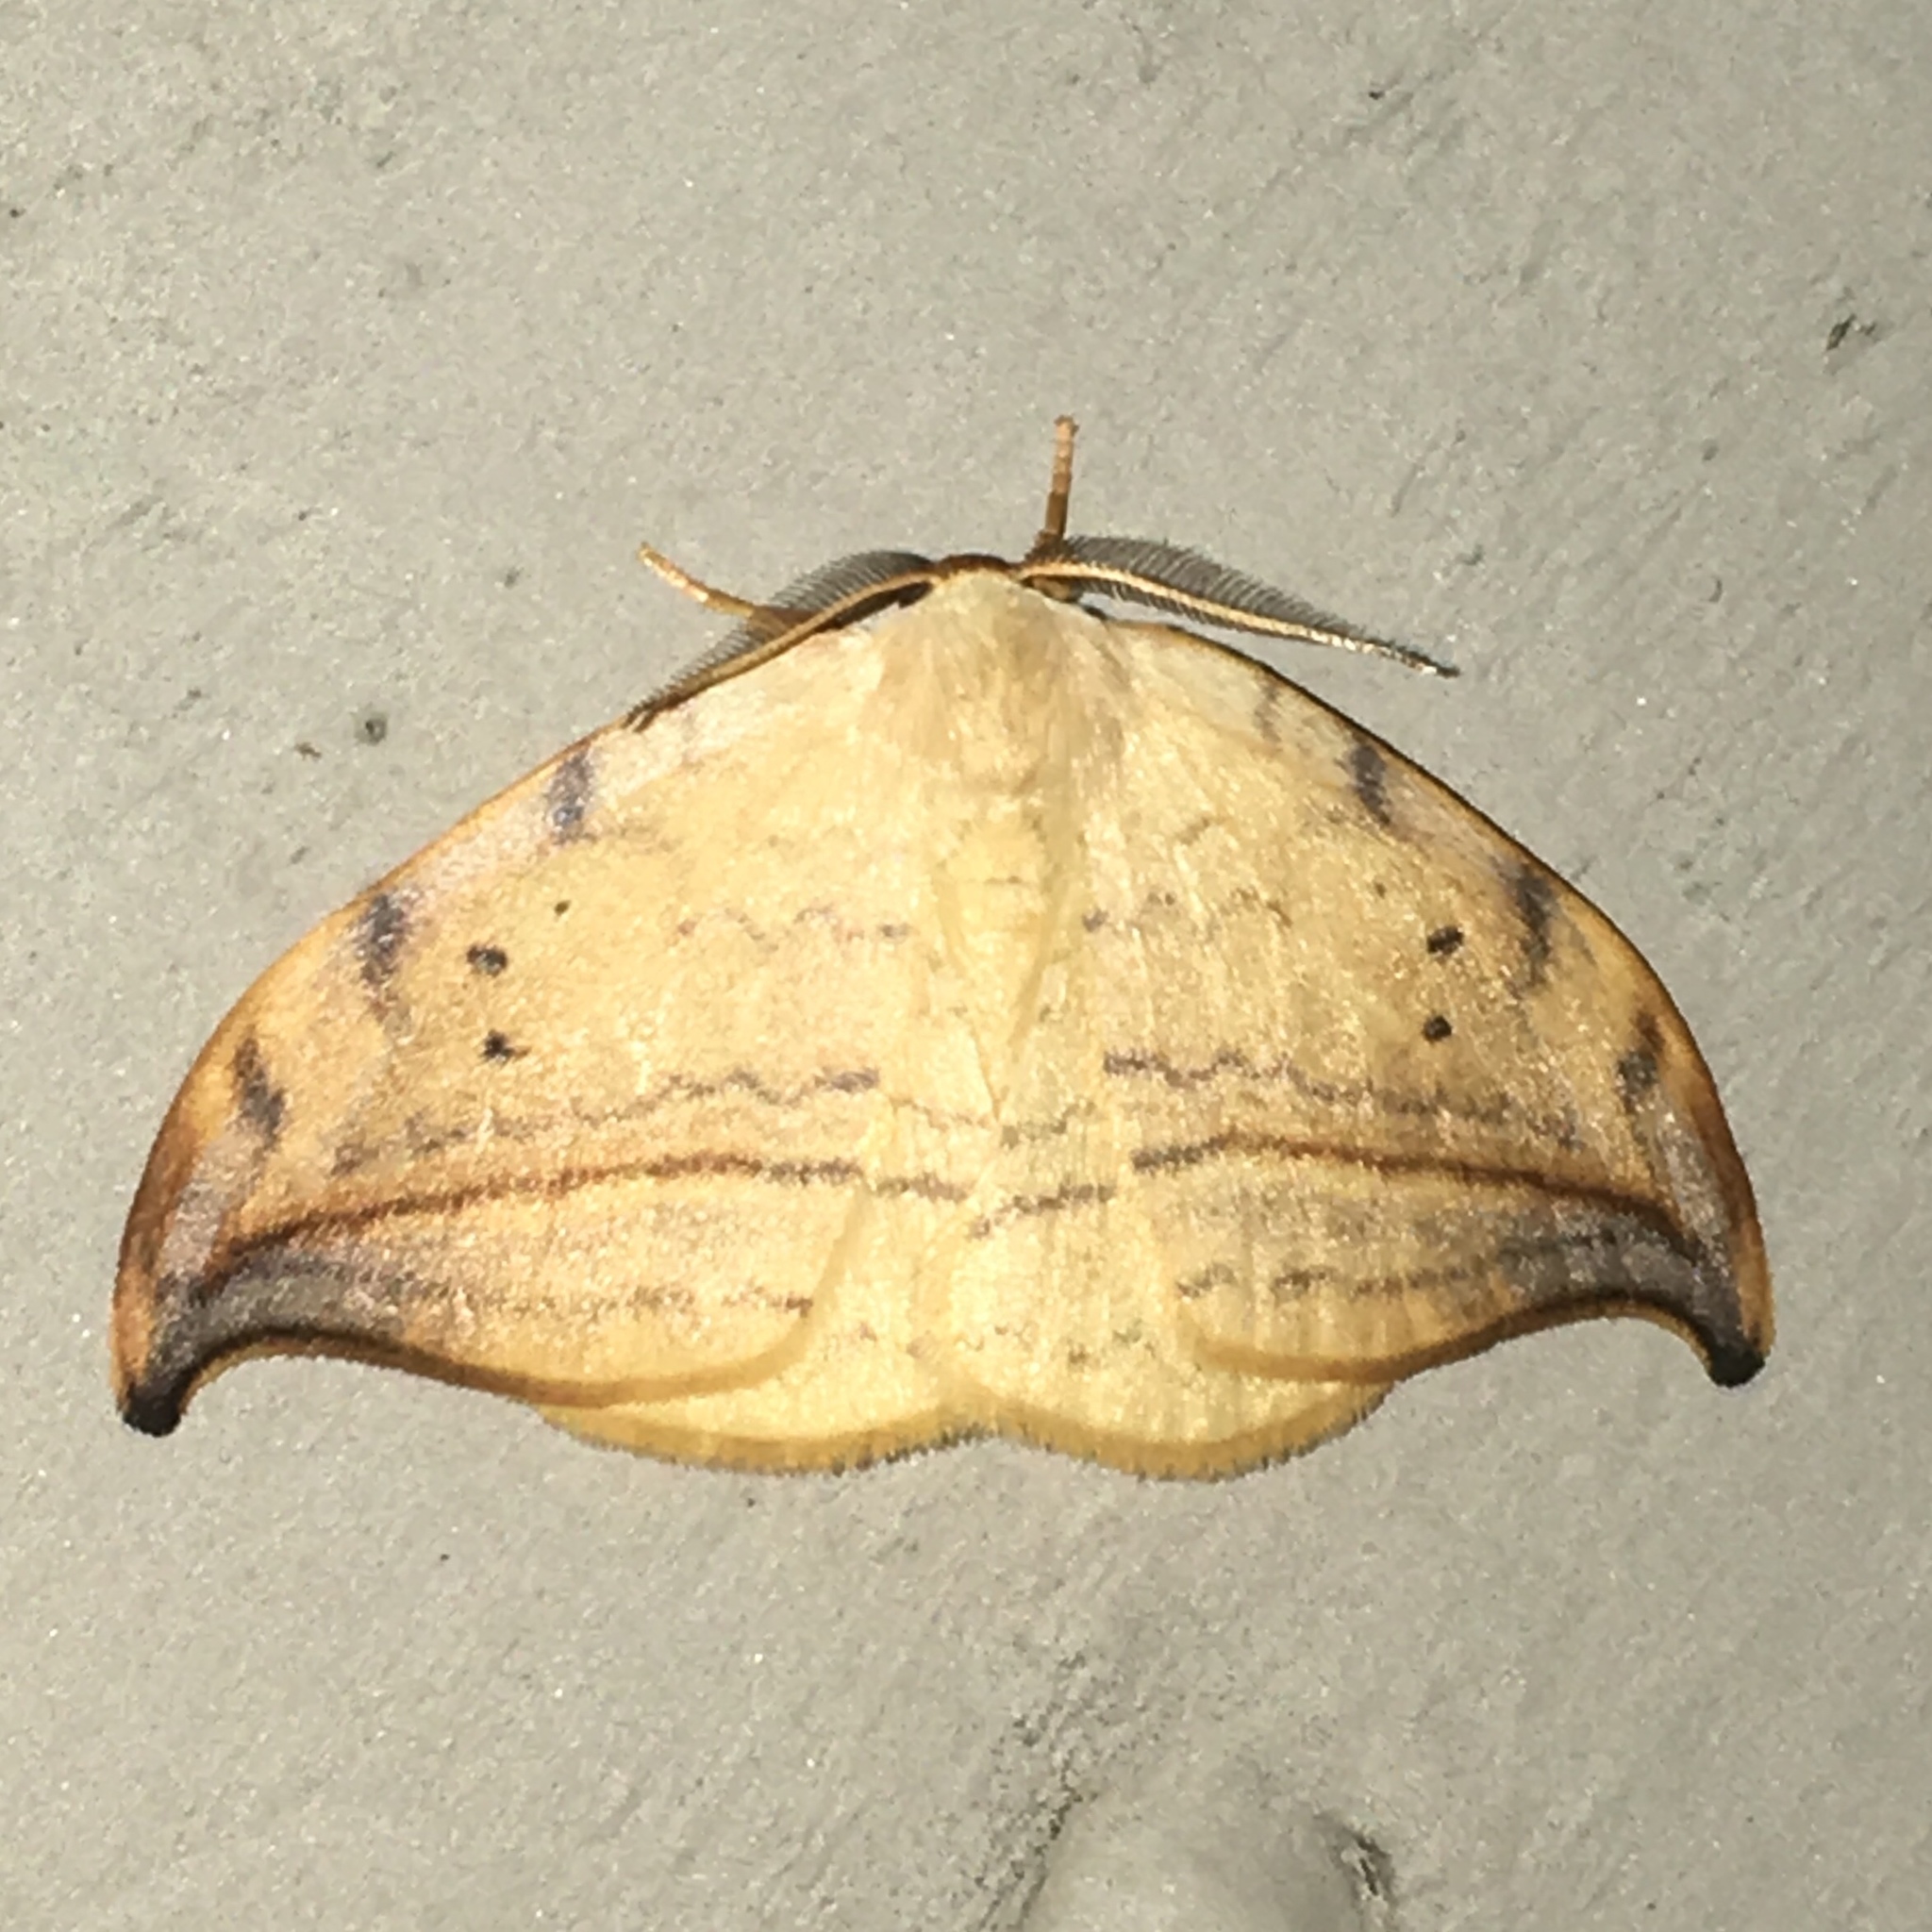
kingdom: Animalia
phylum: Arthropoda
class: Insecta
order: Lepidoptera
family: Drepanidae
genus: Drepana
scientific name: Drepana arcuata
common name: Arched hooktip moth
